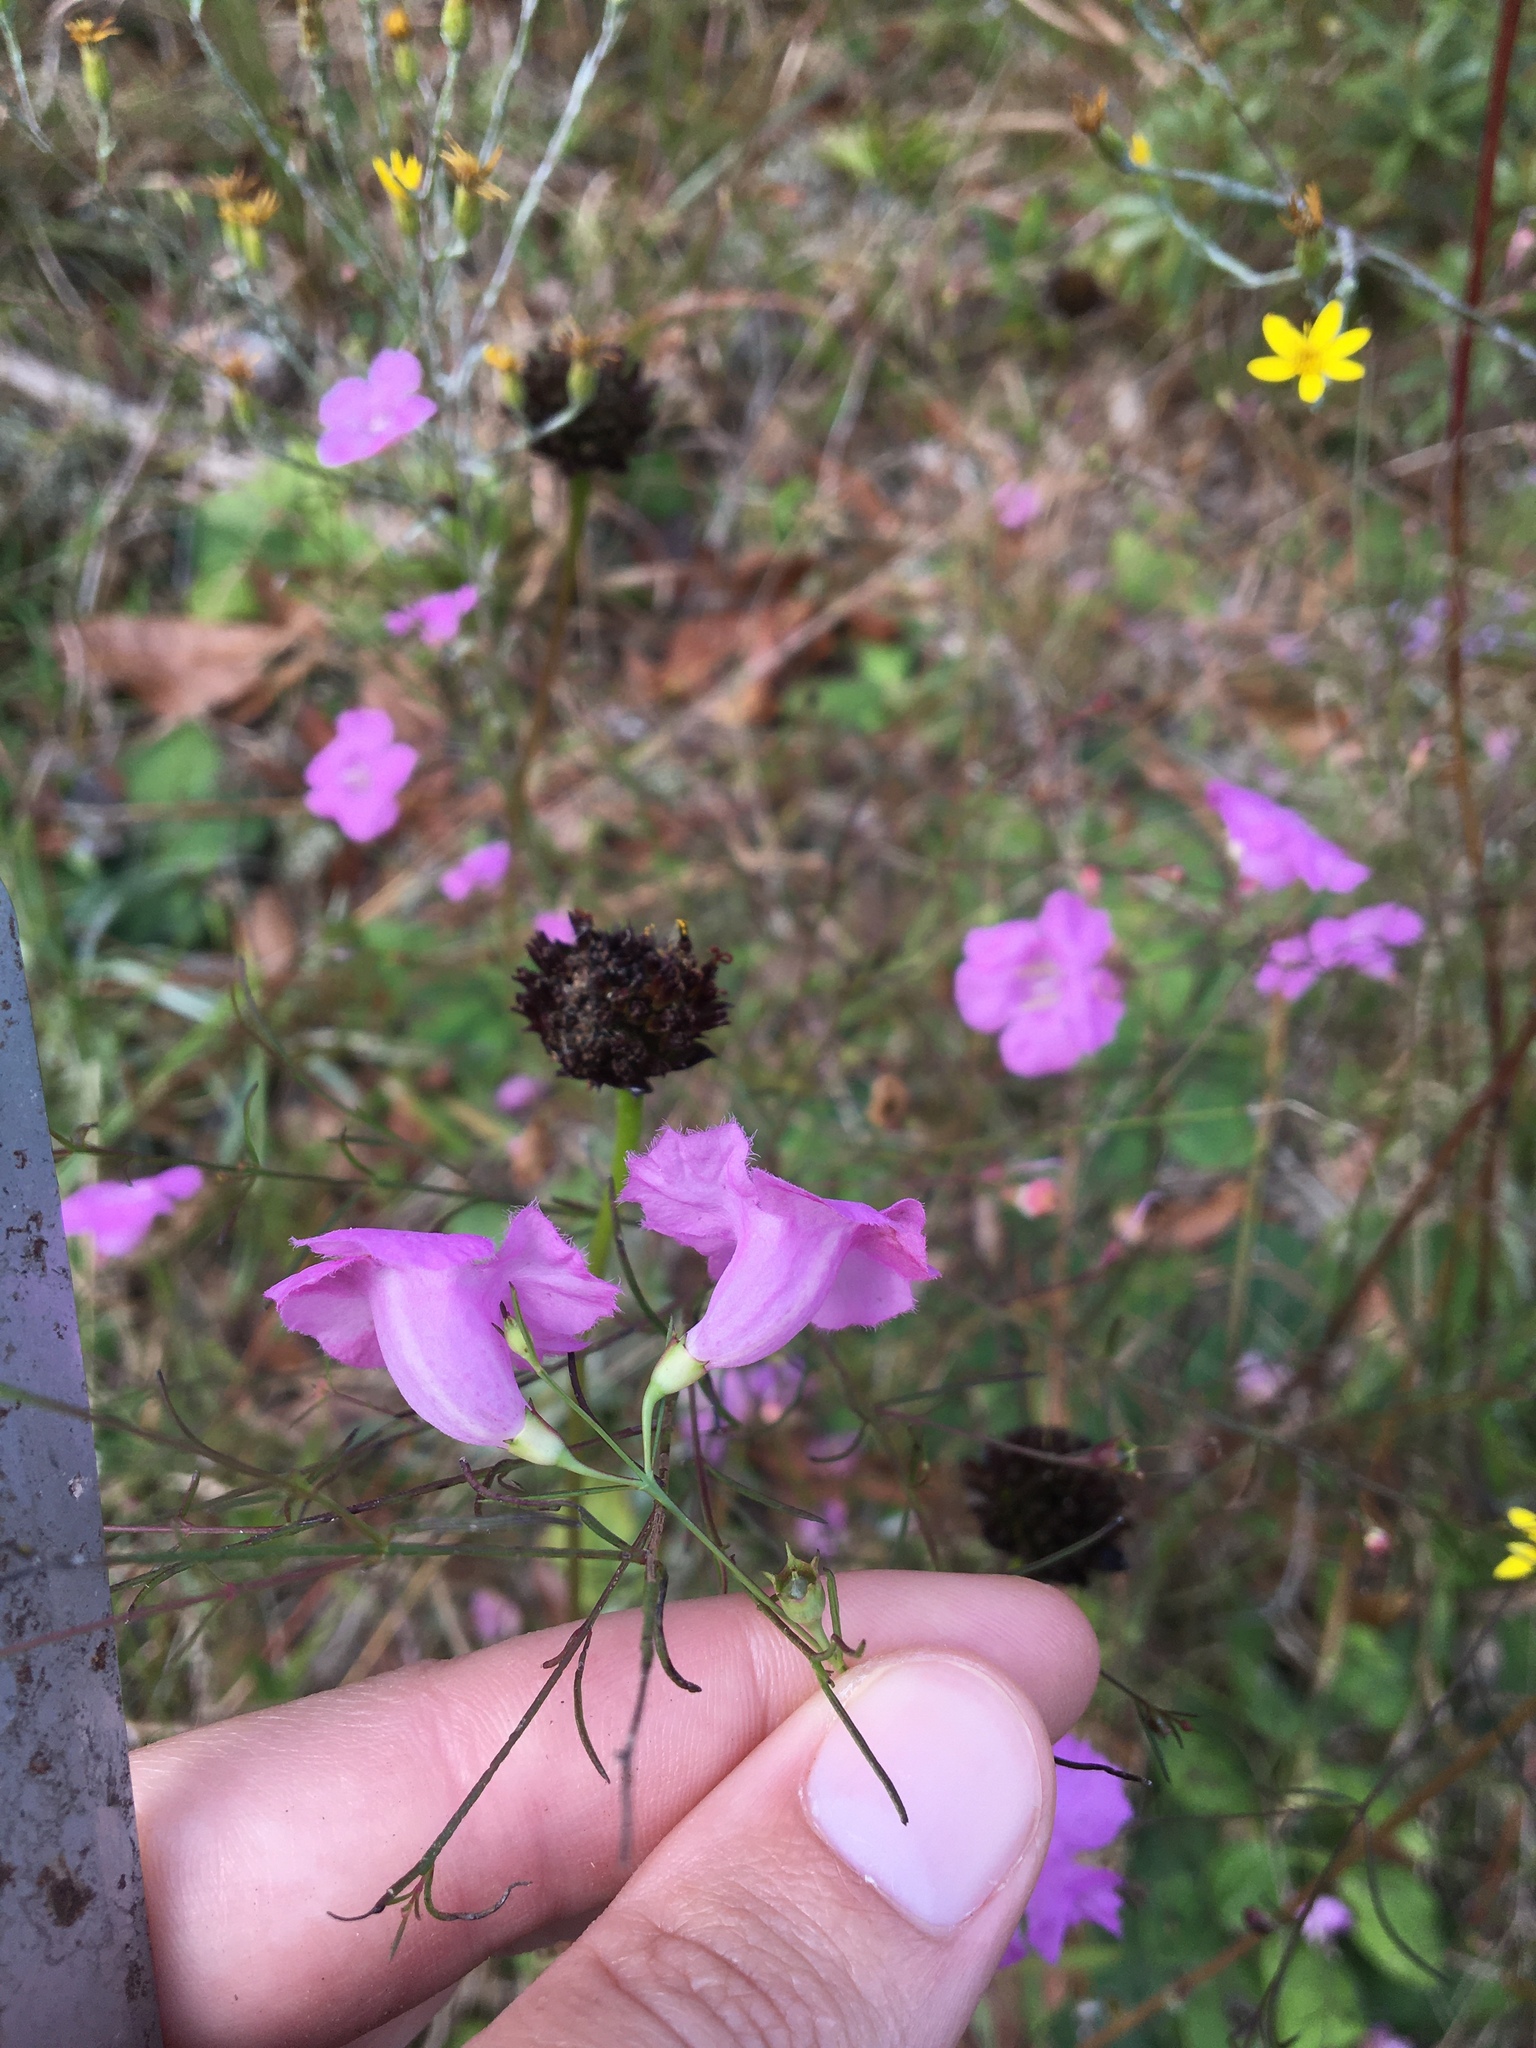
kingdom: Plantae
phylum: Tracheophyta
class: Magnoliopsida
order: Lamiales
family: Orobanchaceae
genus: Agalinis
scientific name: Agalinis plukenetii
